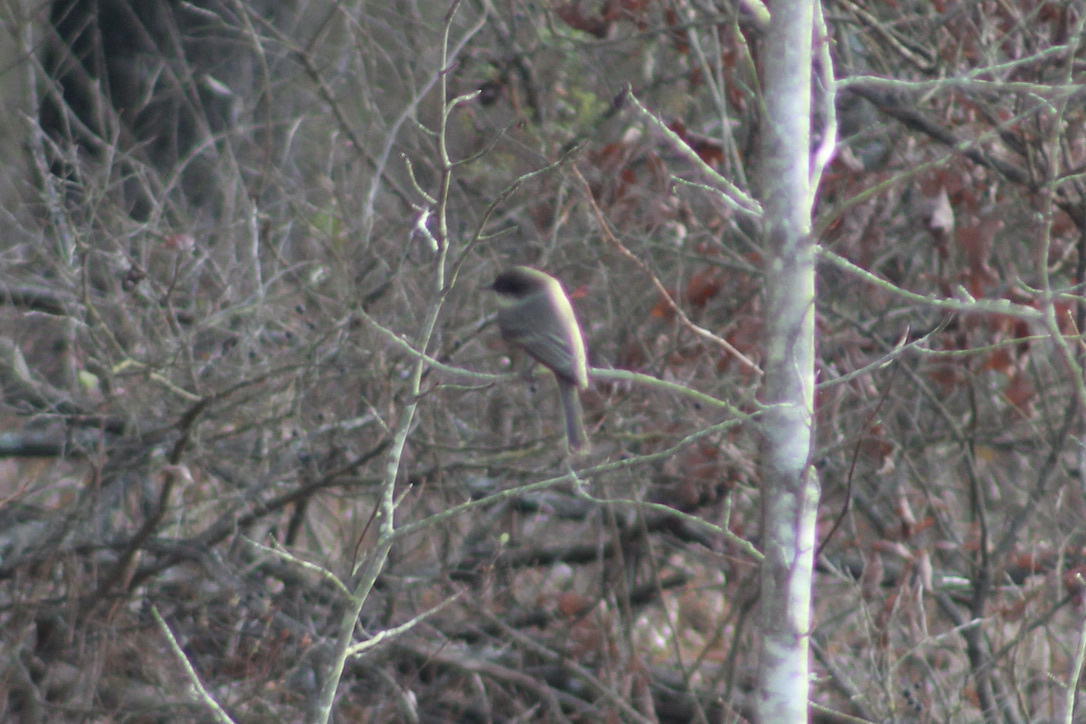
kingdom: Animalia
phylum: Chordata
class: Aves
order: Passeriformes
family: Tyrannidae
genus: Sayornis
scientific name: Sayornis phoebe
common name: Eastern phoebe
